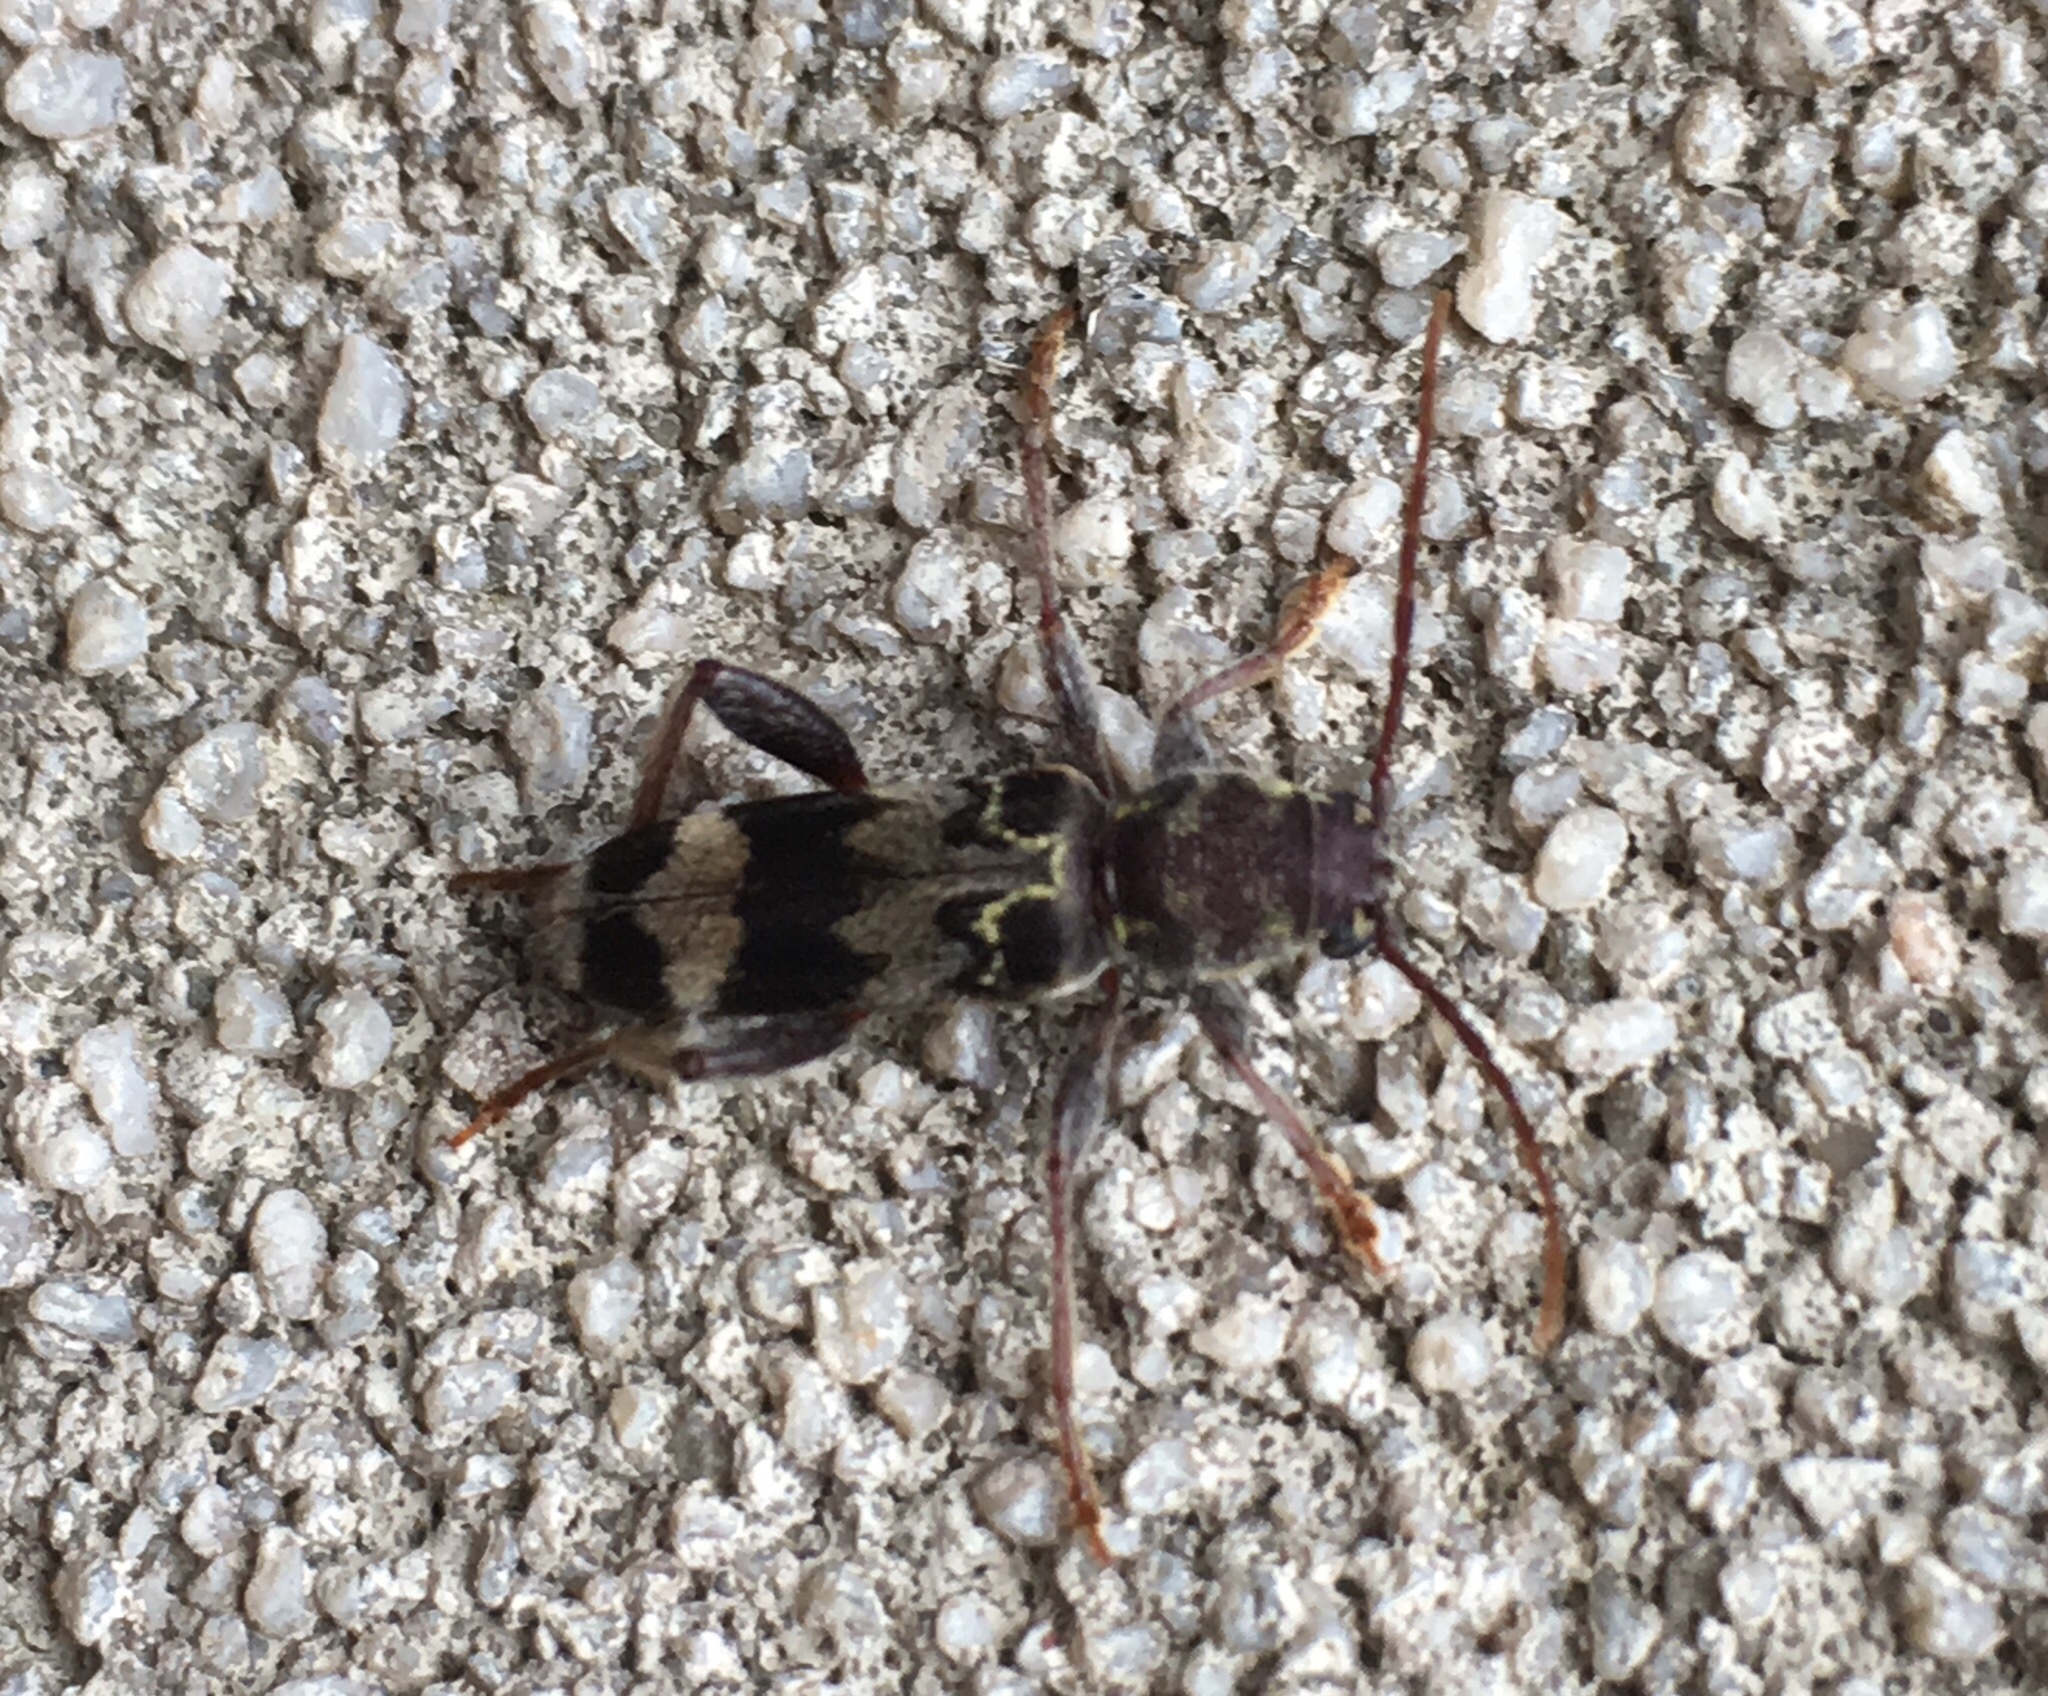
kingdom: Animalia
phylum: Arthropoda
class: Insecta
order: Coleoptera
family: Cerambycidae
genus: Xylotrechus
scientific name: Xylotrechus colonus
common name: Long-horned beetle
